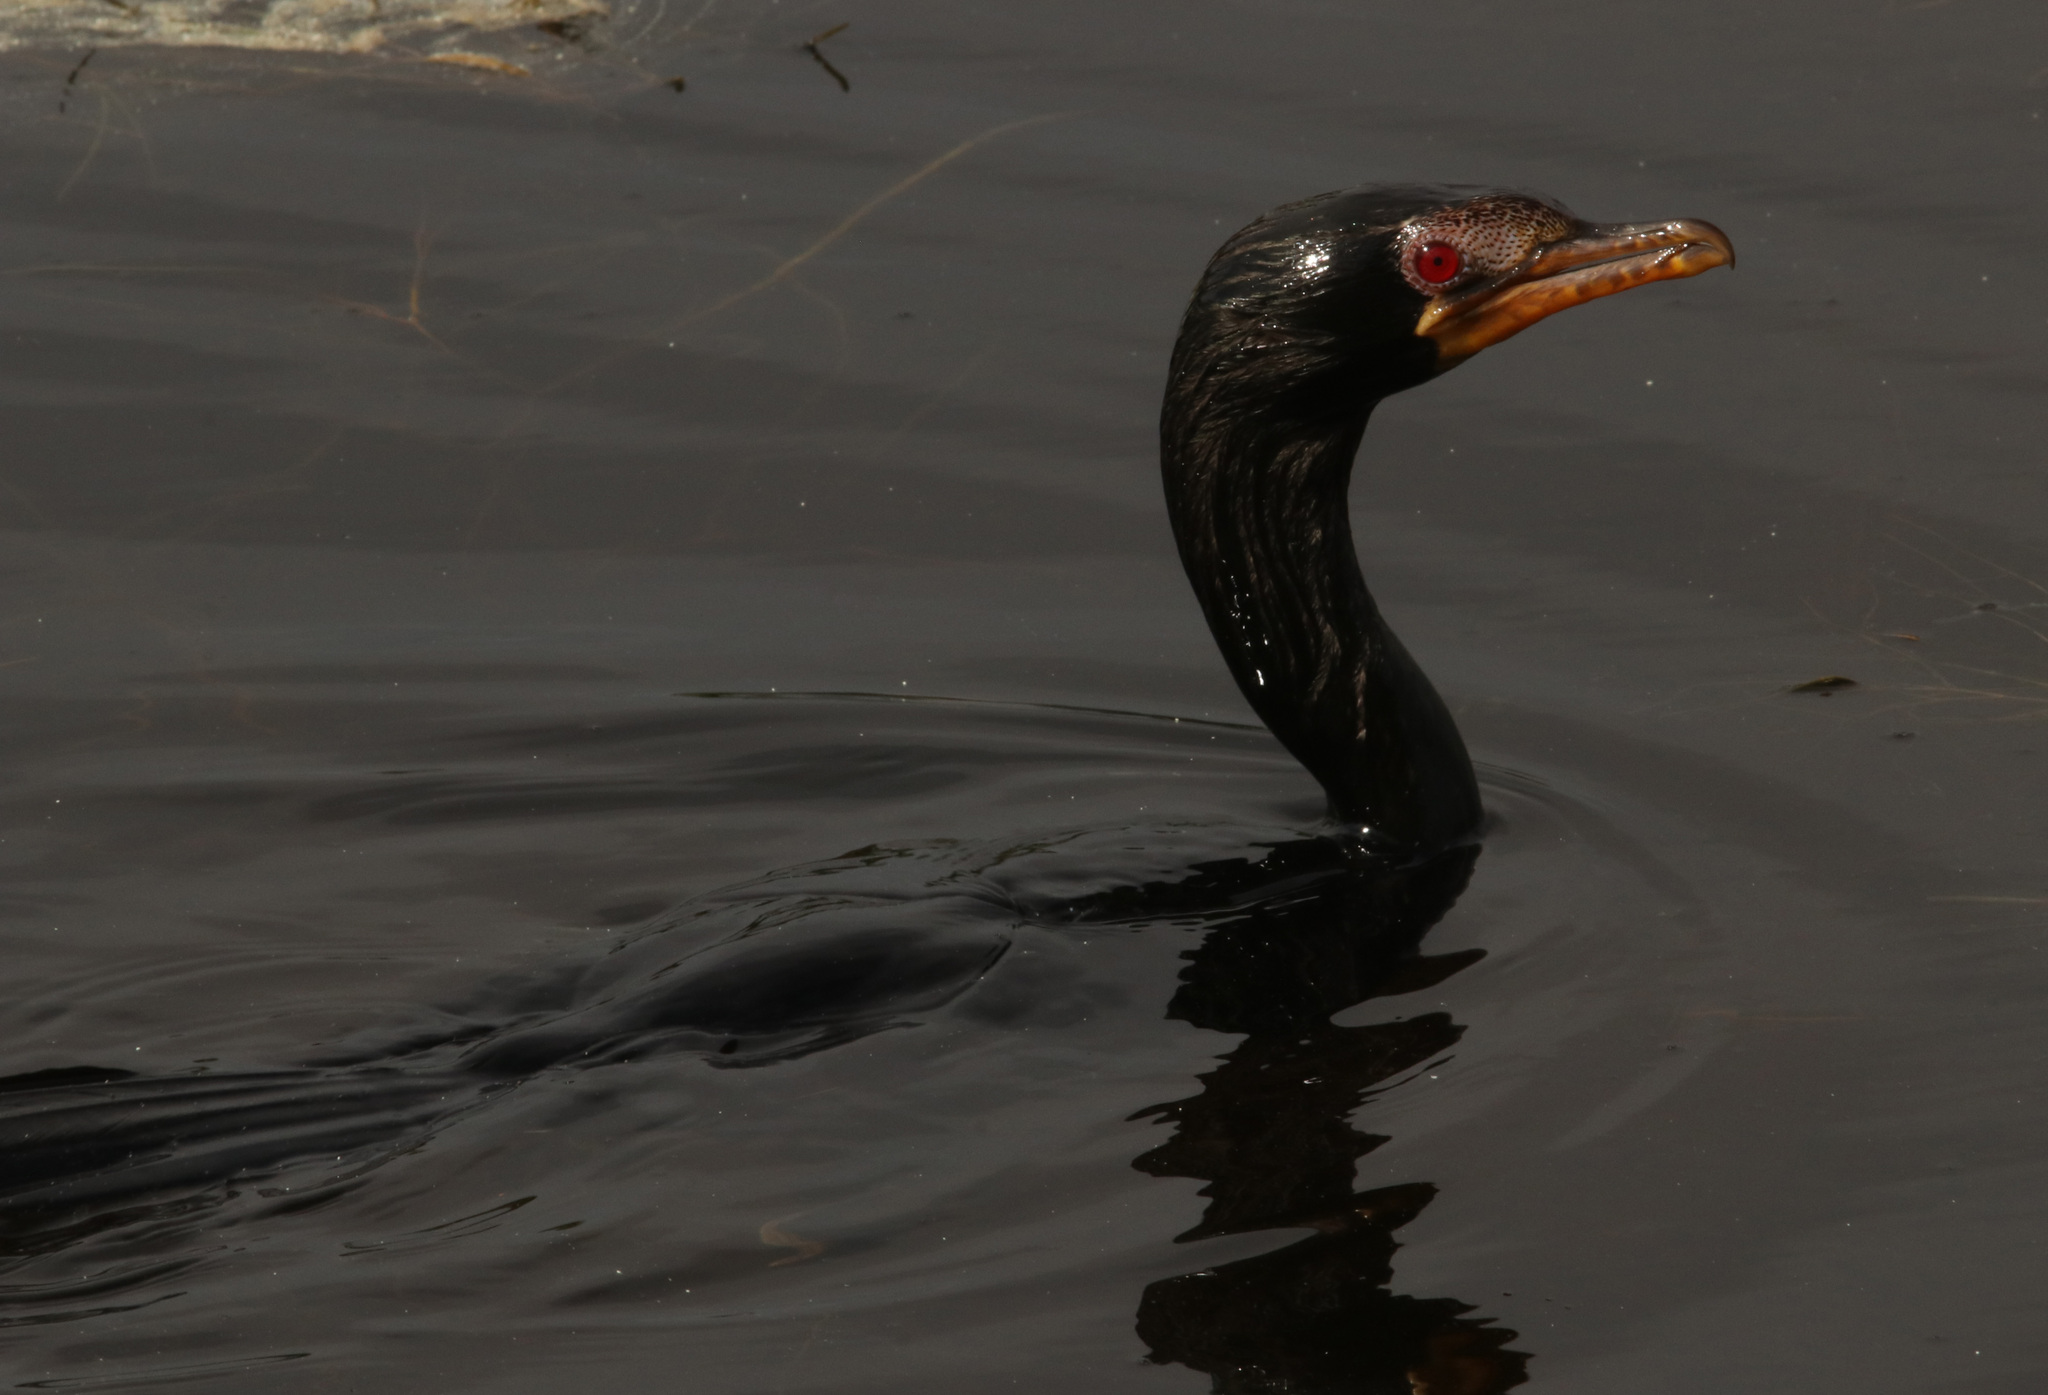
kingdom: Animalia
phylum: Chordata
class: Aves
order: Suliformes
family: Phalacrocoracidae
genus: Microcarbo
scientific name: Microcarbo africanus
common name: Long-tailed cormorant
